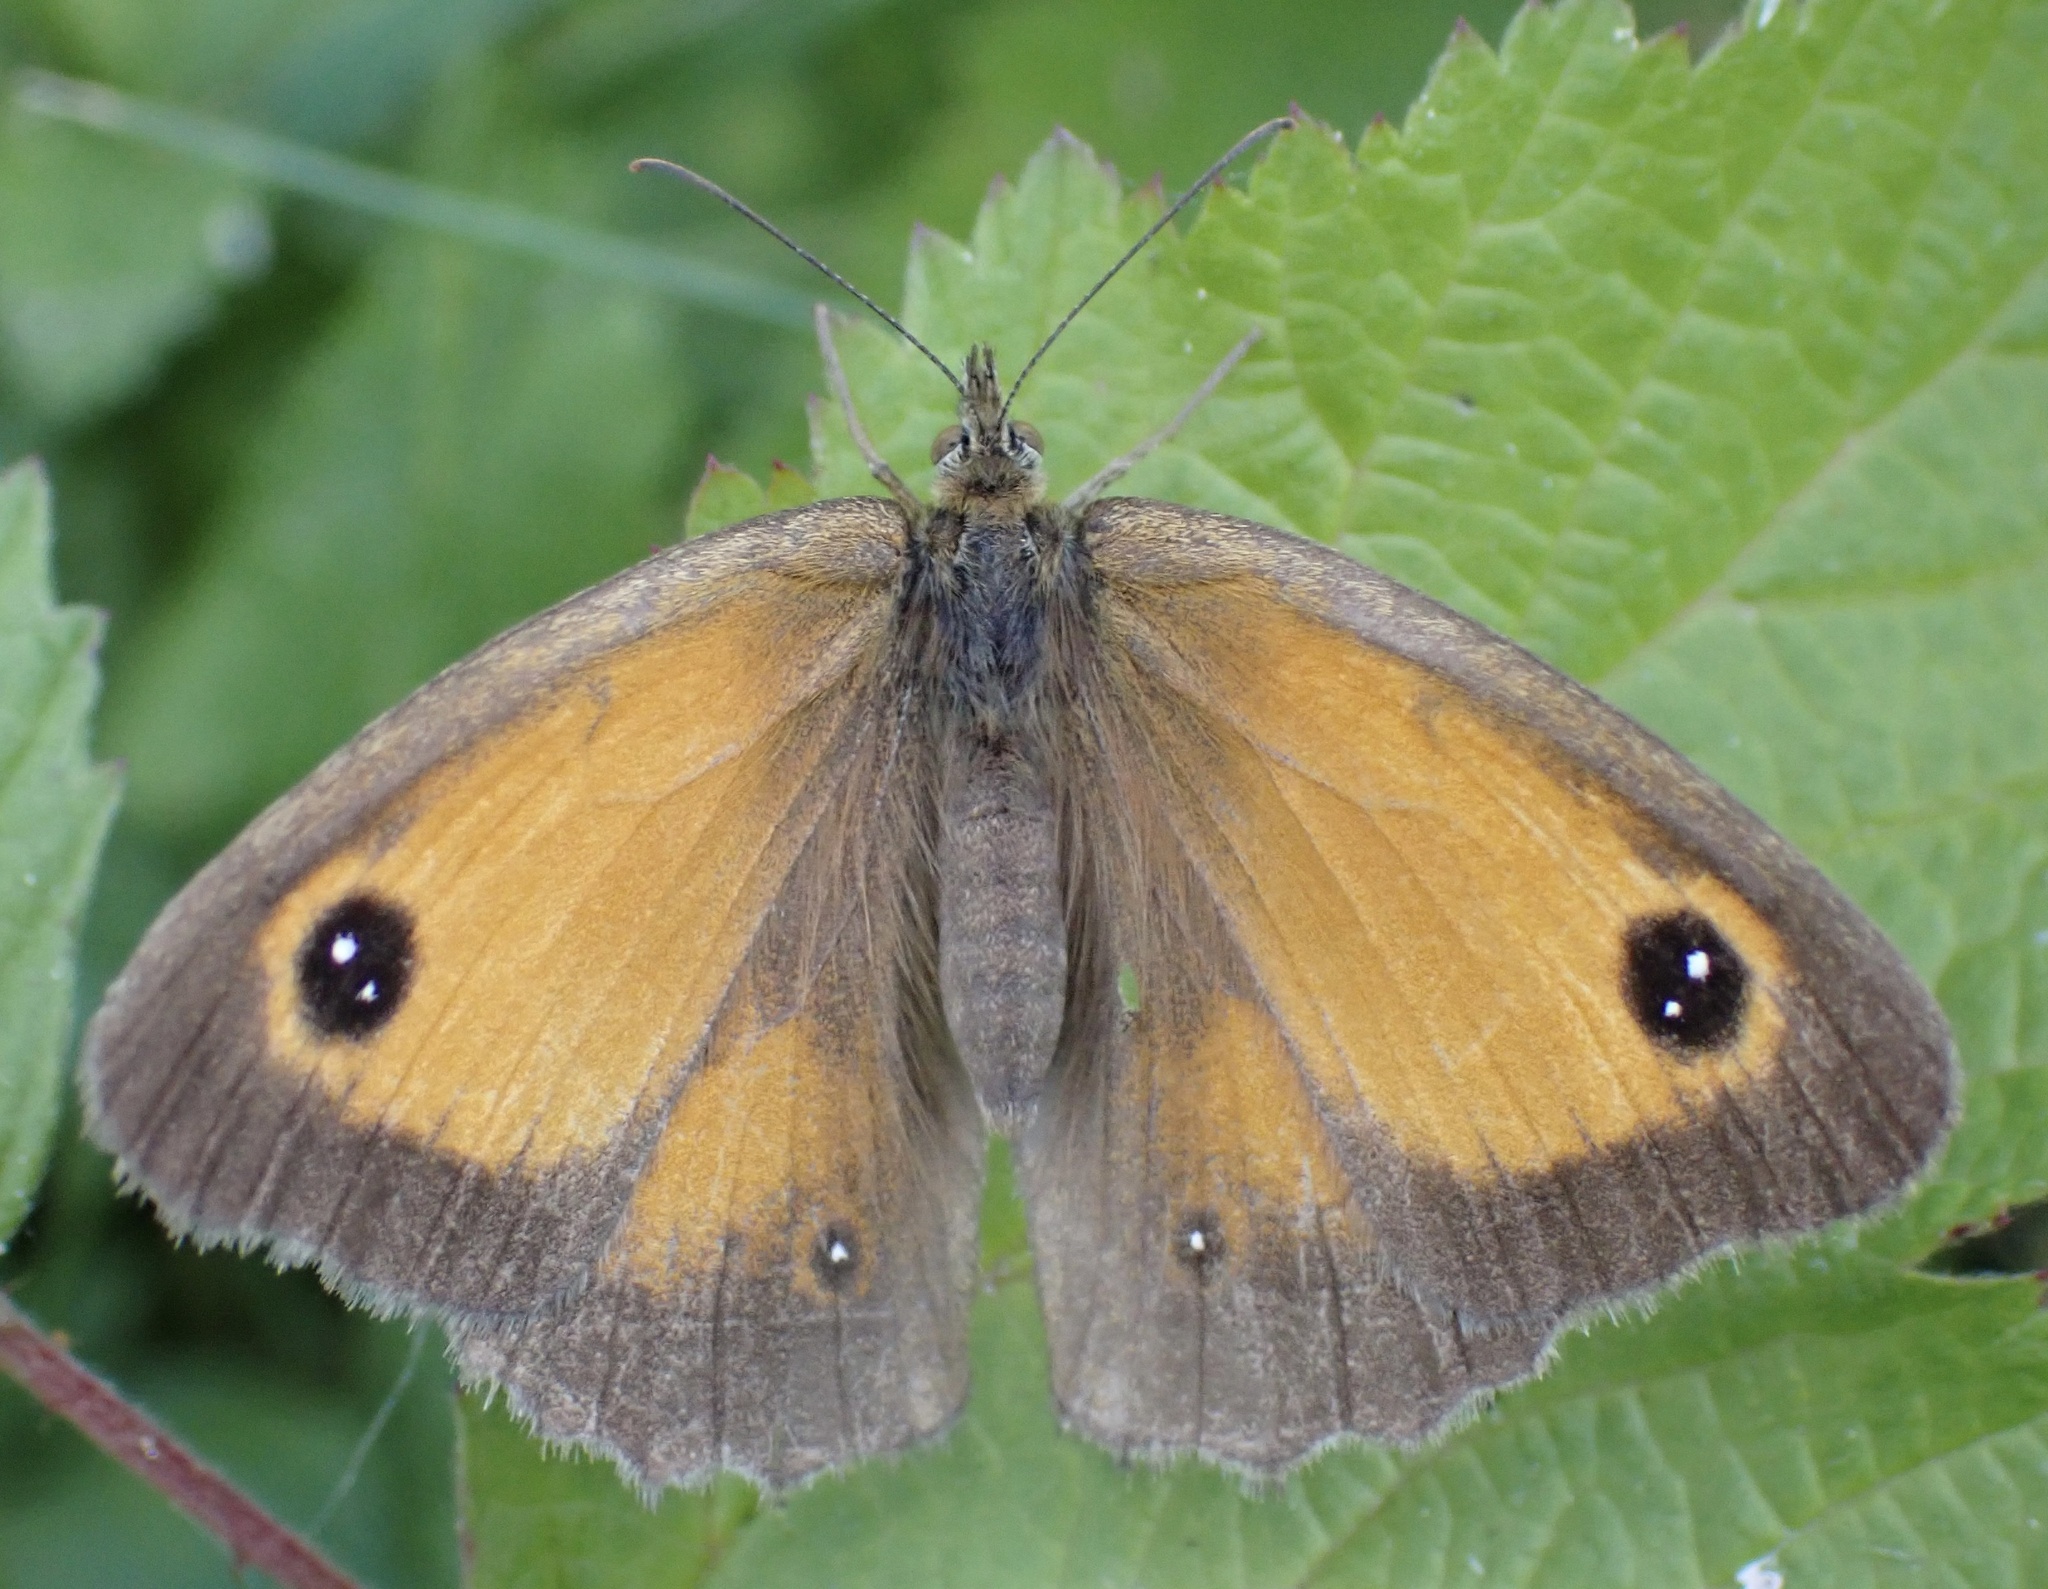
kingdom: Animalia
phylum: Arthropoda
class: Insecta
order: Lepidoptera
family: Nymphalidae
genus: Pyronia
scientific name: Pyronia tithonus
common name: Gatekeeper
